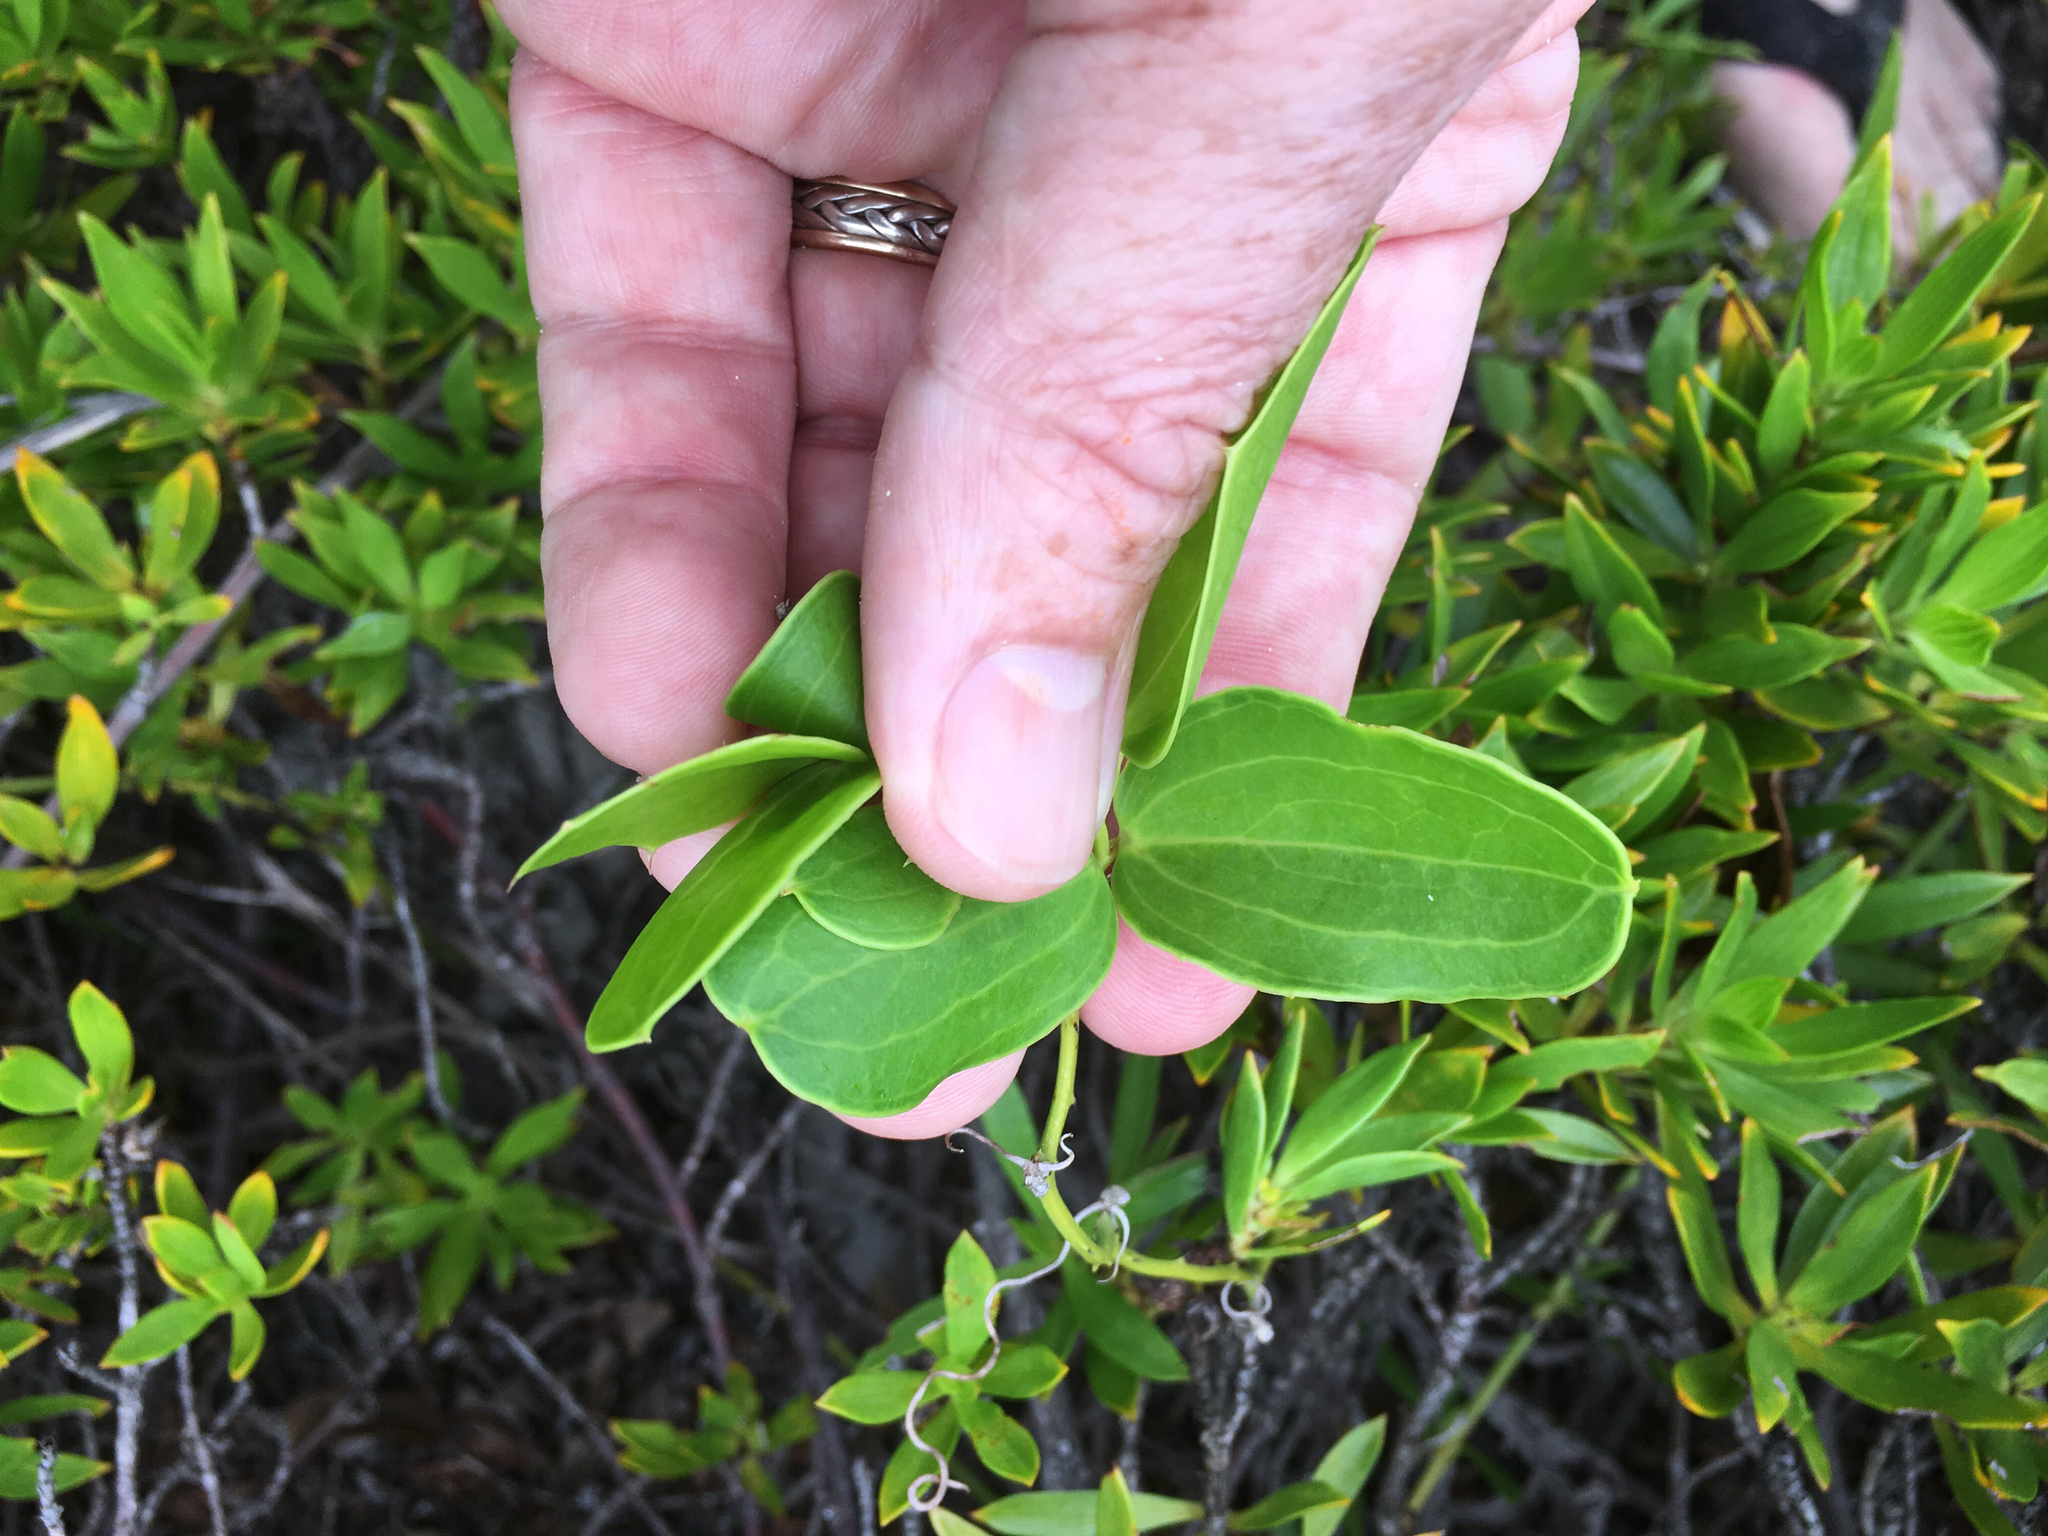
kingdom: Plantae
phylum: Tracheophyta
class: Liliopsida
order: Liliales
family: Smilacaceae
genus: Smilax
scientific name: Smilax havanensis
